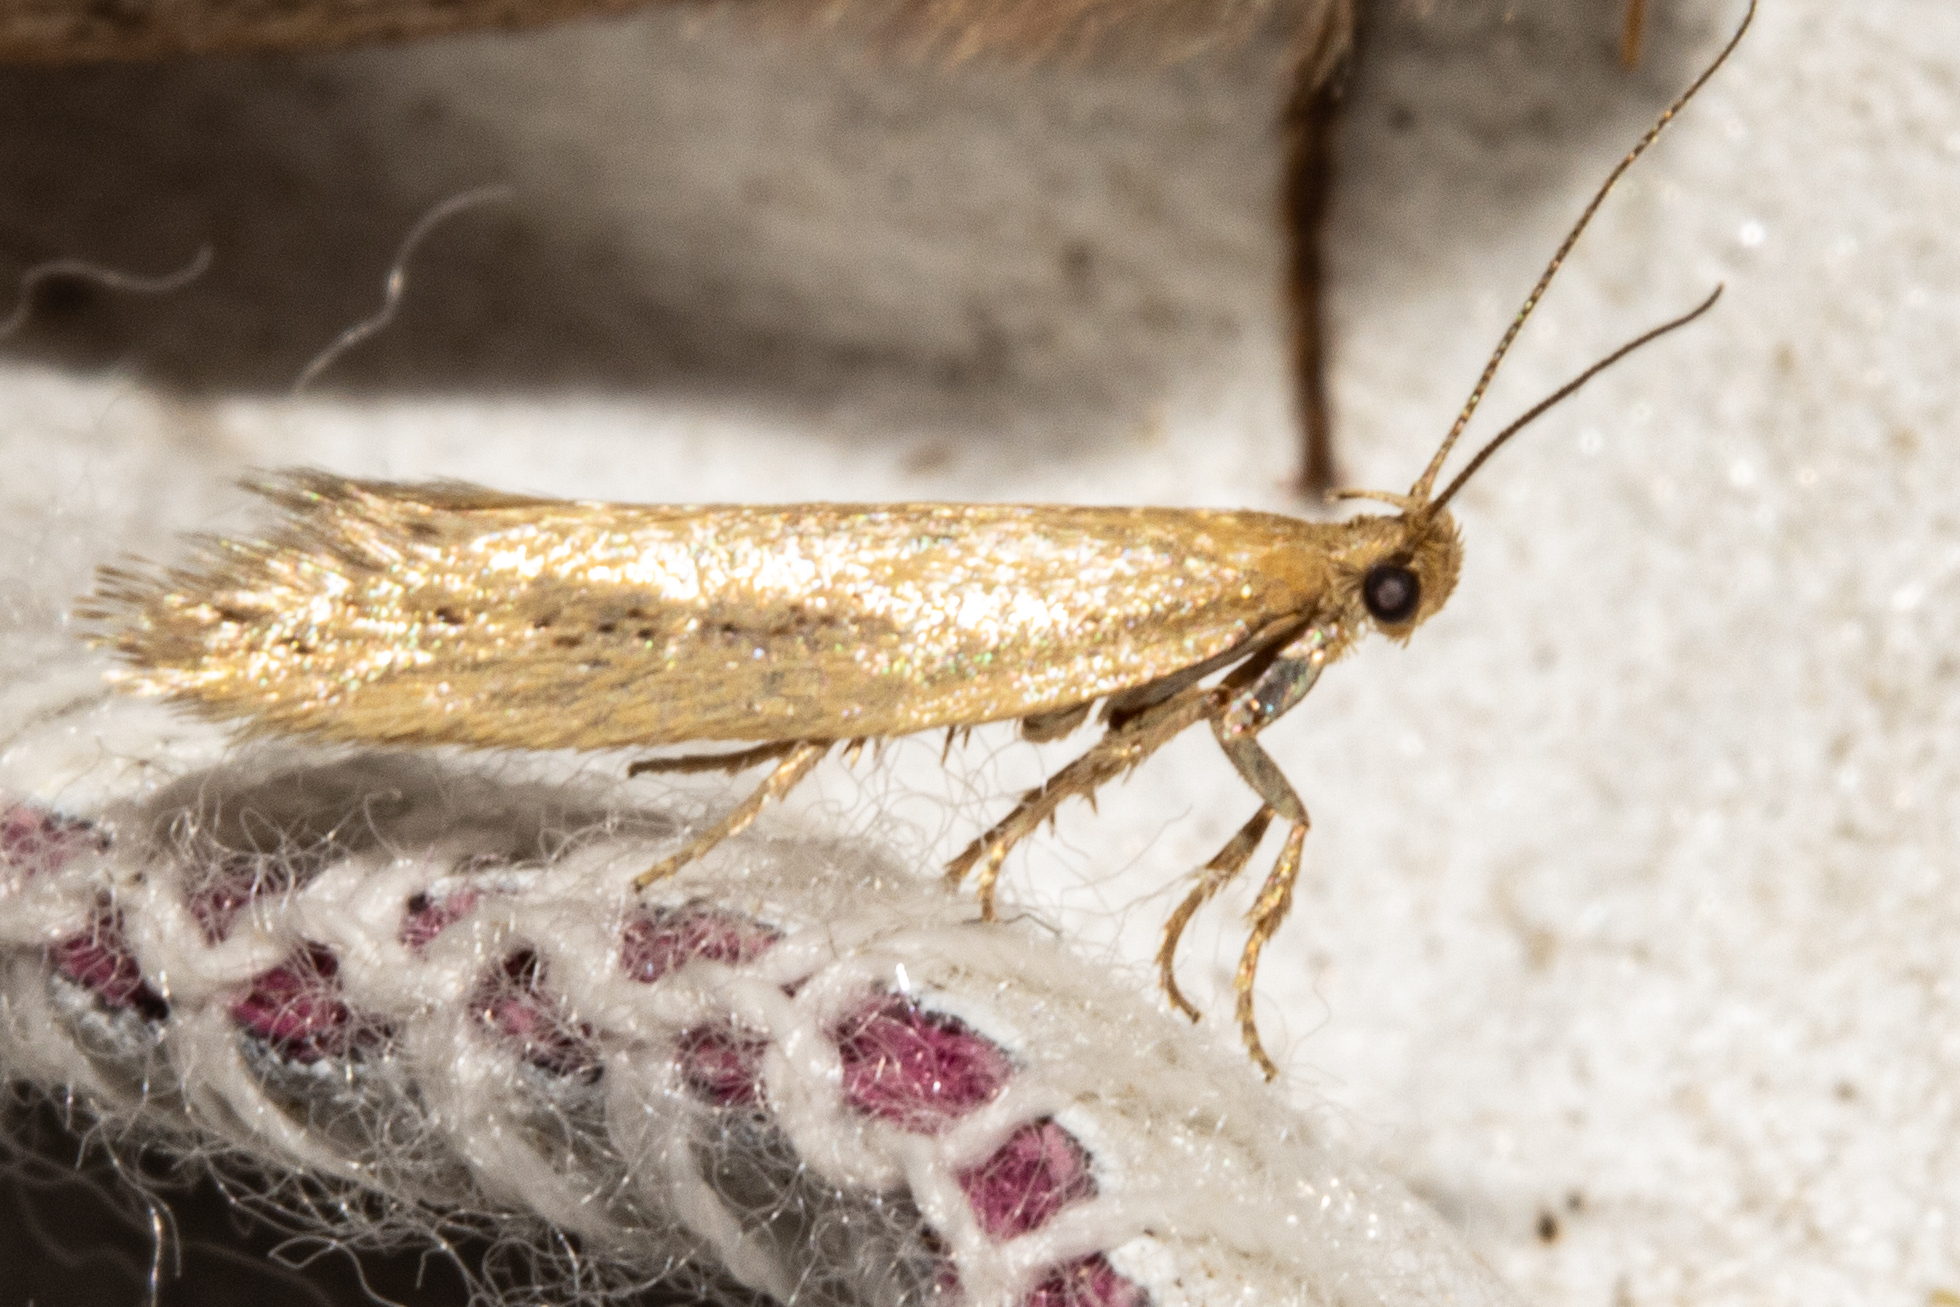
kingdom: Animalia
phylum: Arthropoda
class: Insecta
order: Lepidoptera
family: Oecophoridae
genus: Tingena
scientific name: Tingena maranta
